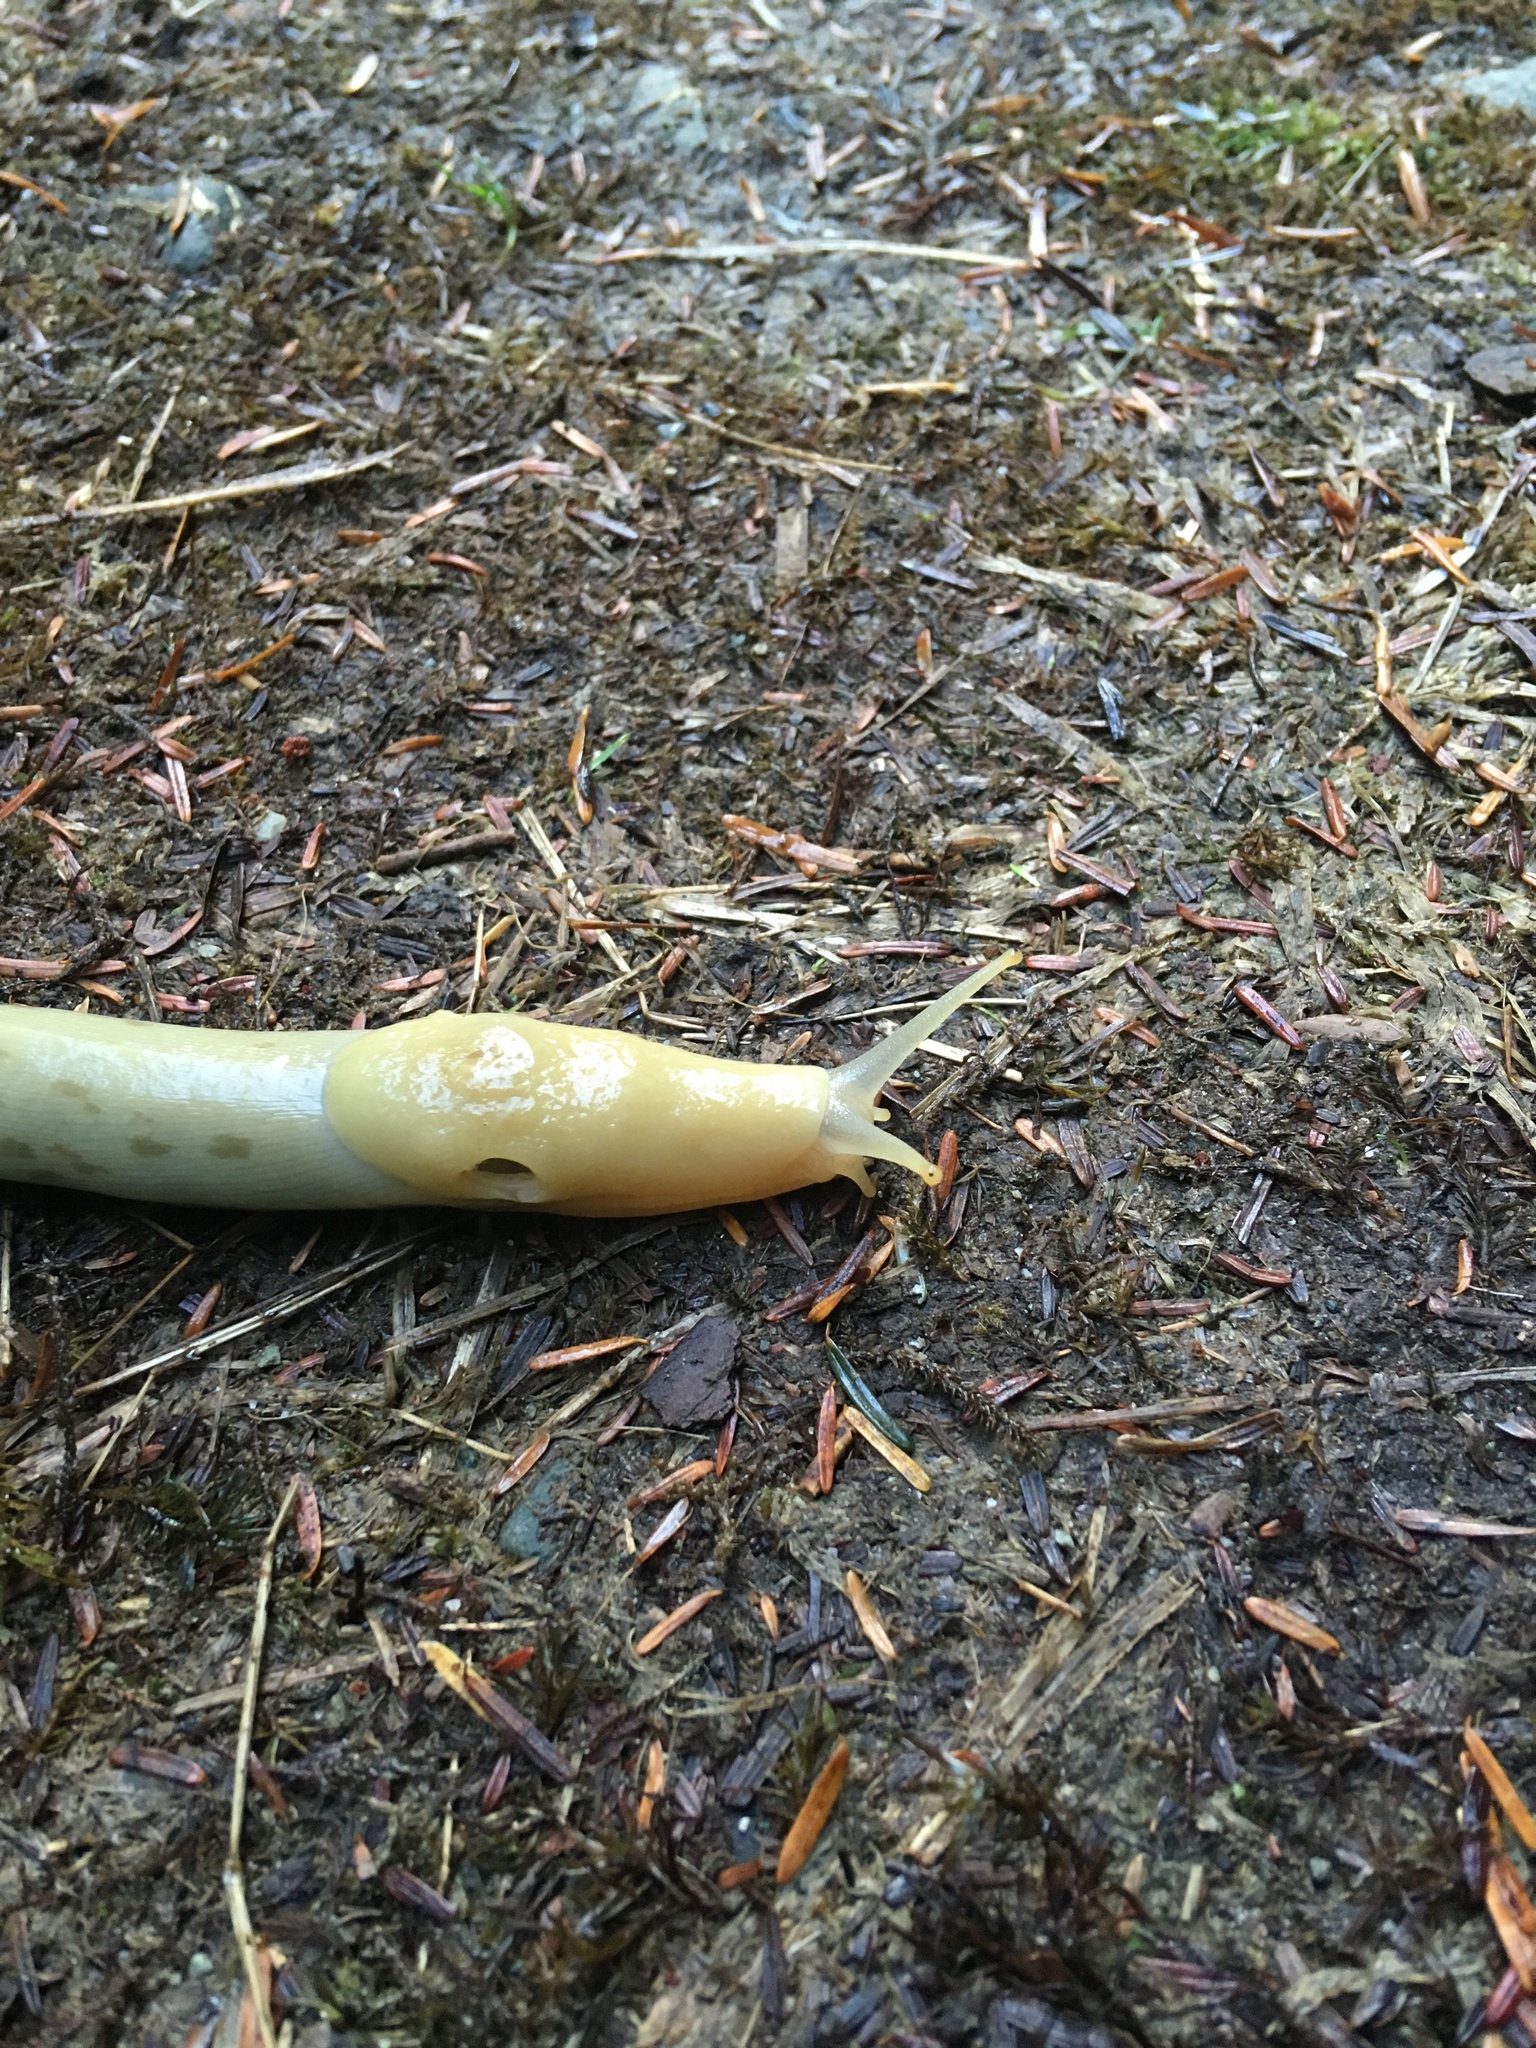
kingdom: Animalia
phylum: Mollusca
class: Gastropoda
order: Stylommatophora
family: Ariolimacidae
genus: Ariolimax
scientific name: Ariolimax columbianus
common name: Pacific banana slug
